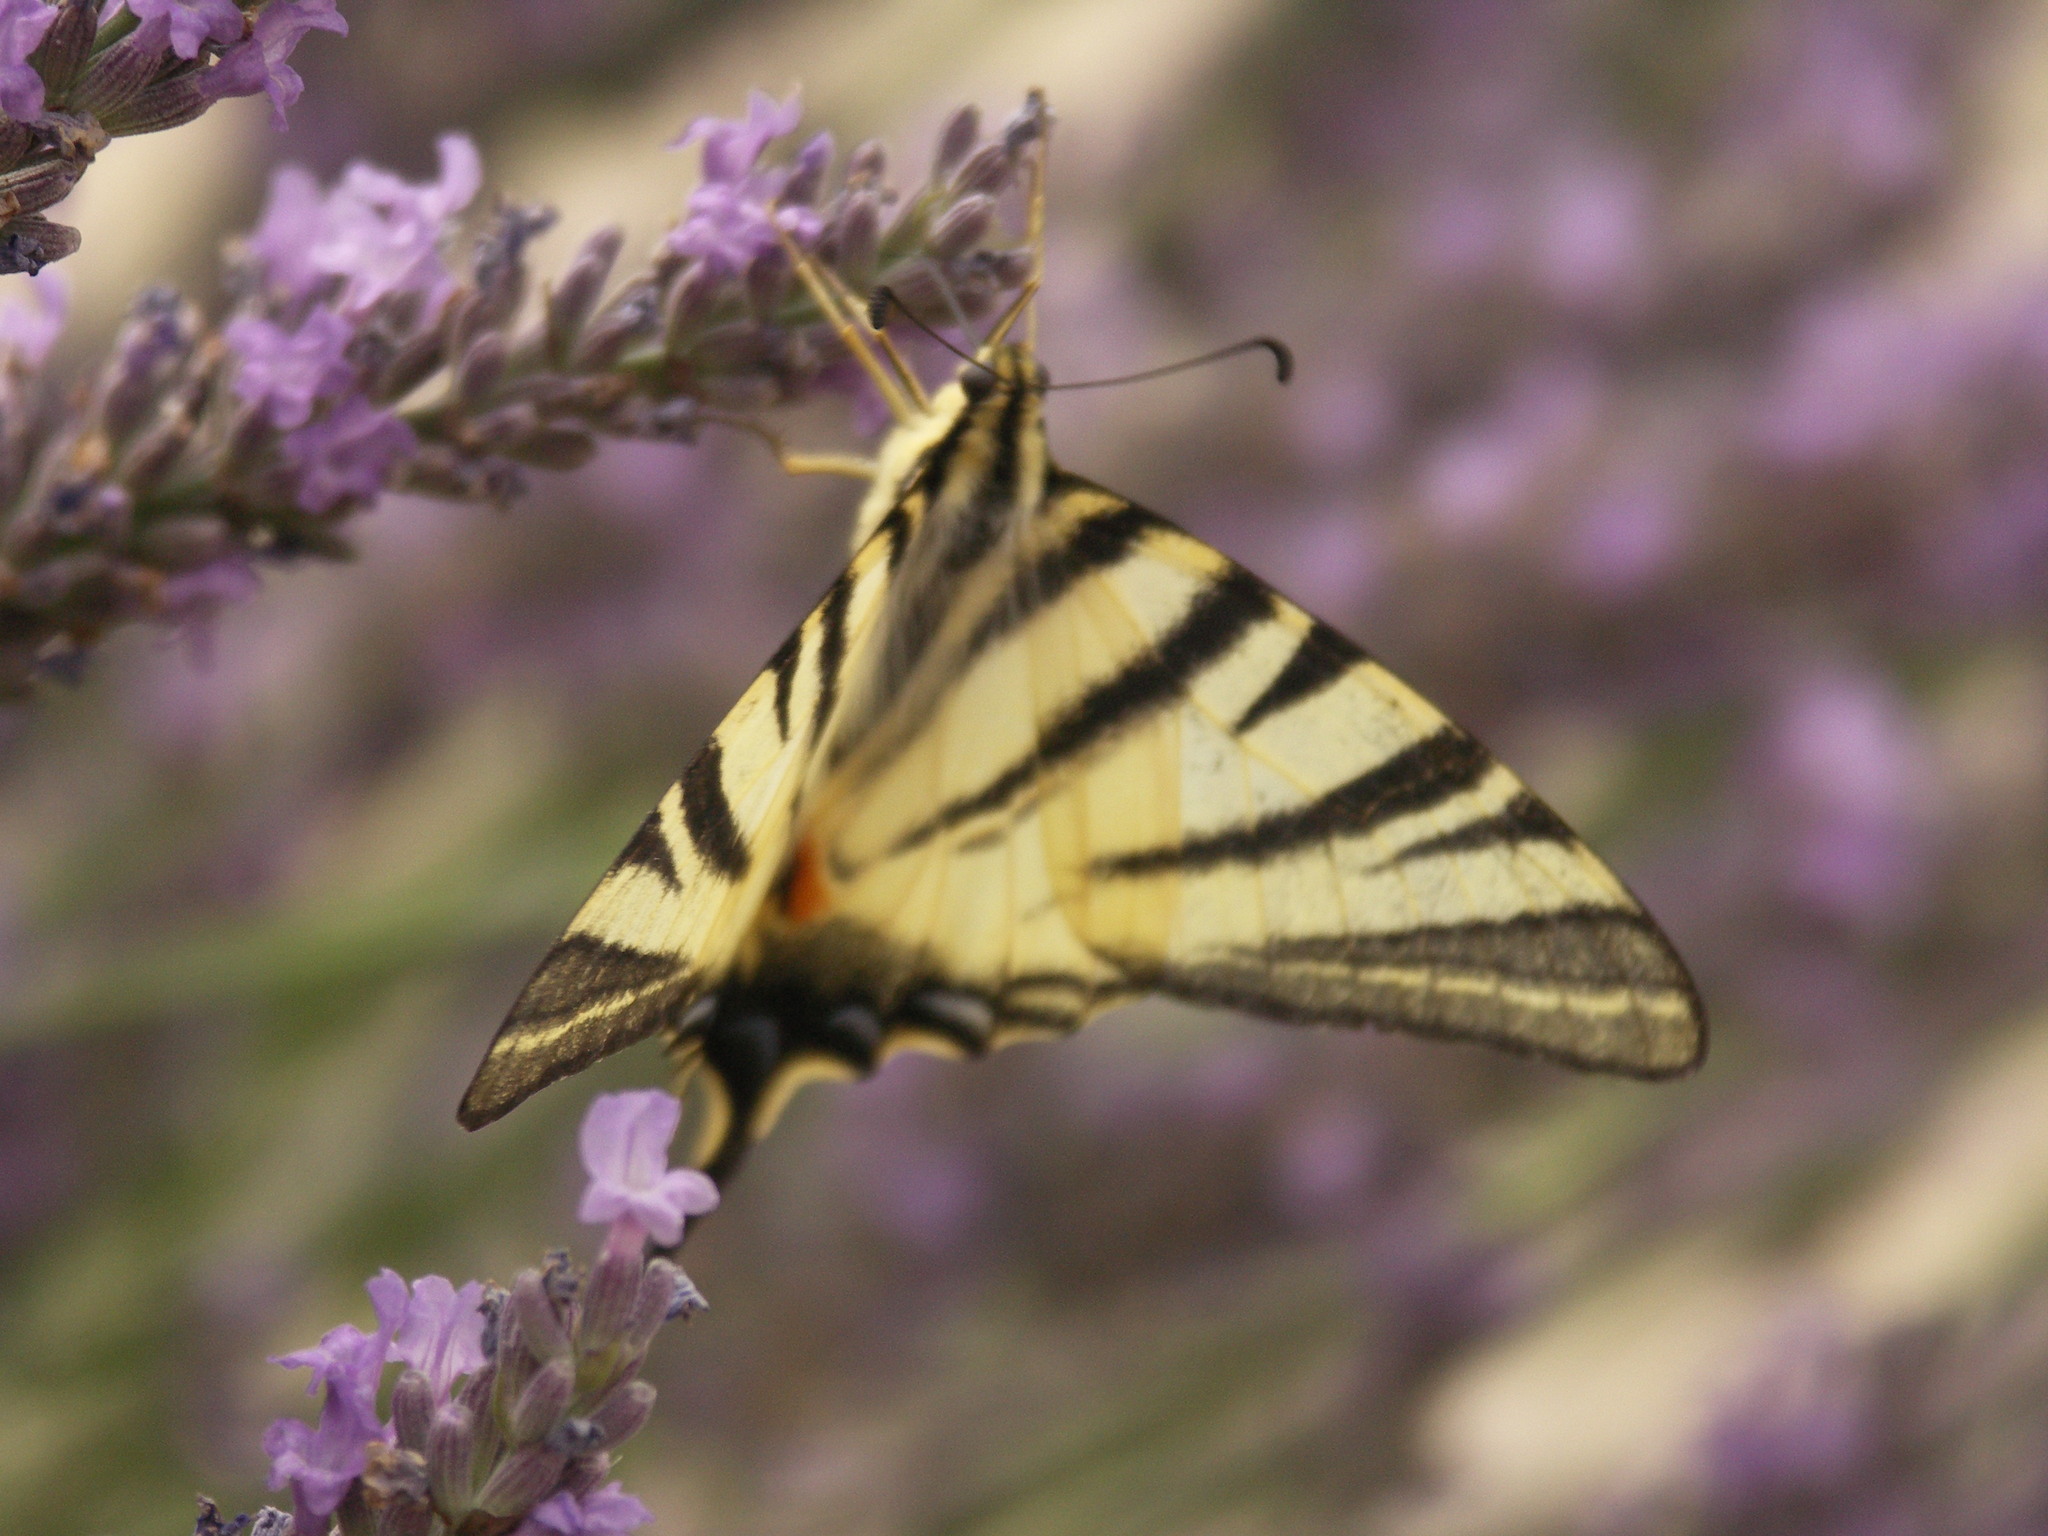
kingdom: Animalia
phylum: Arthropoda
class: Insecta
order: Lepidoptera
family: Papilionidae
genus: Iphiclides
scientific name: Iphiclides podalirius
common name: Scarce swallowtail
